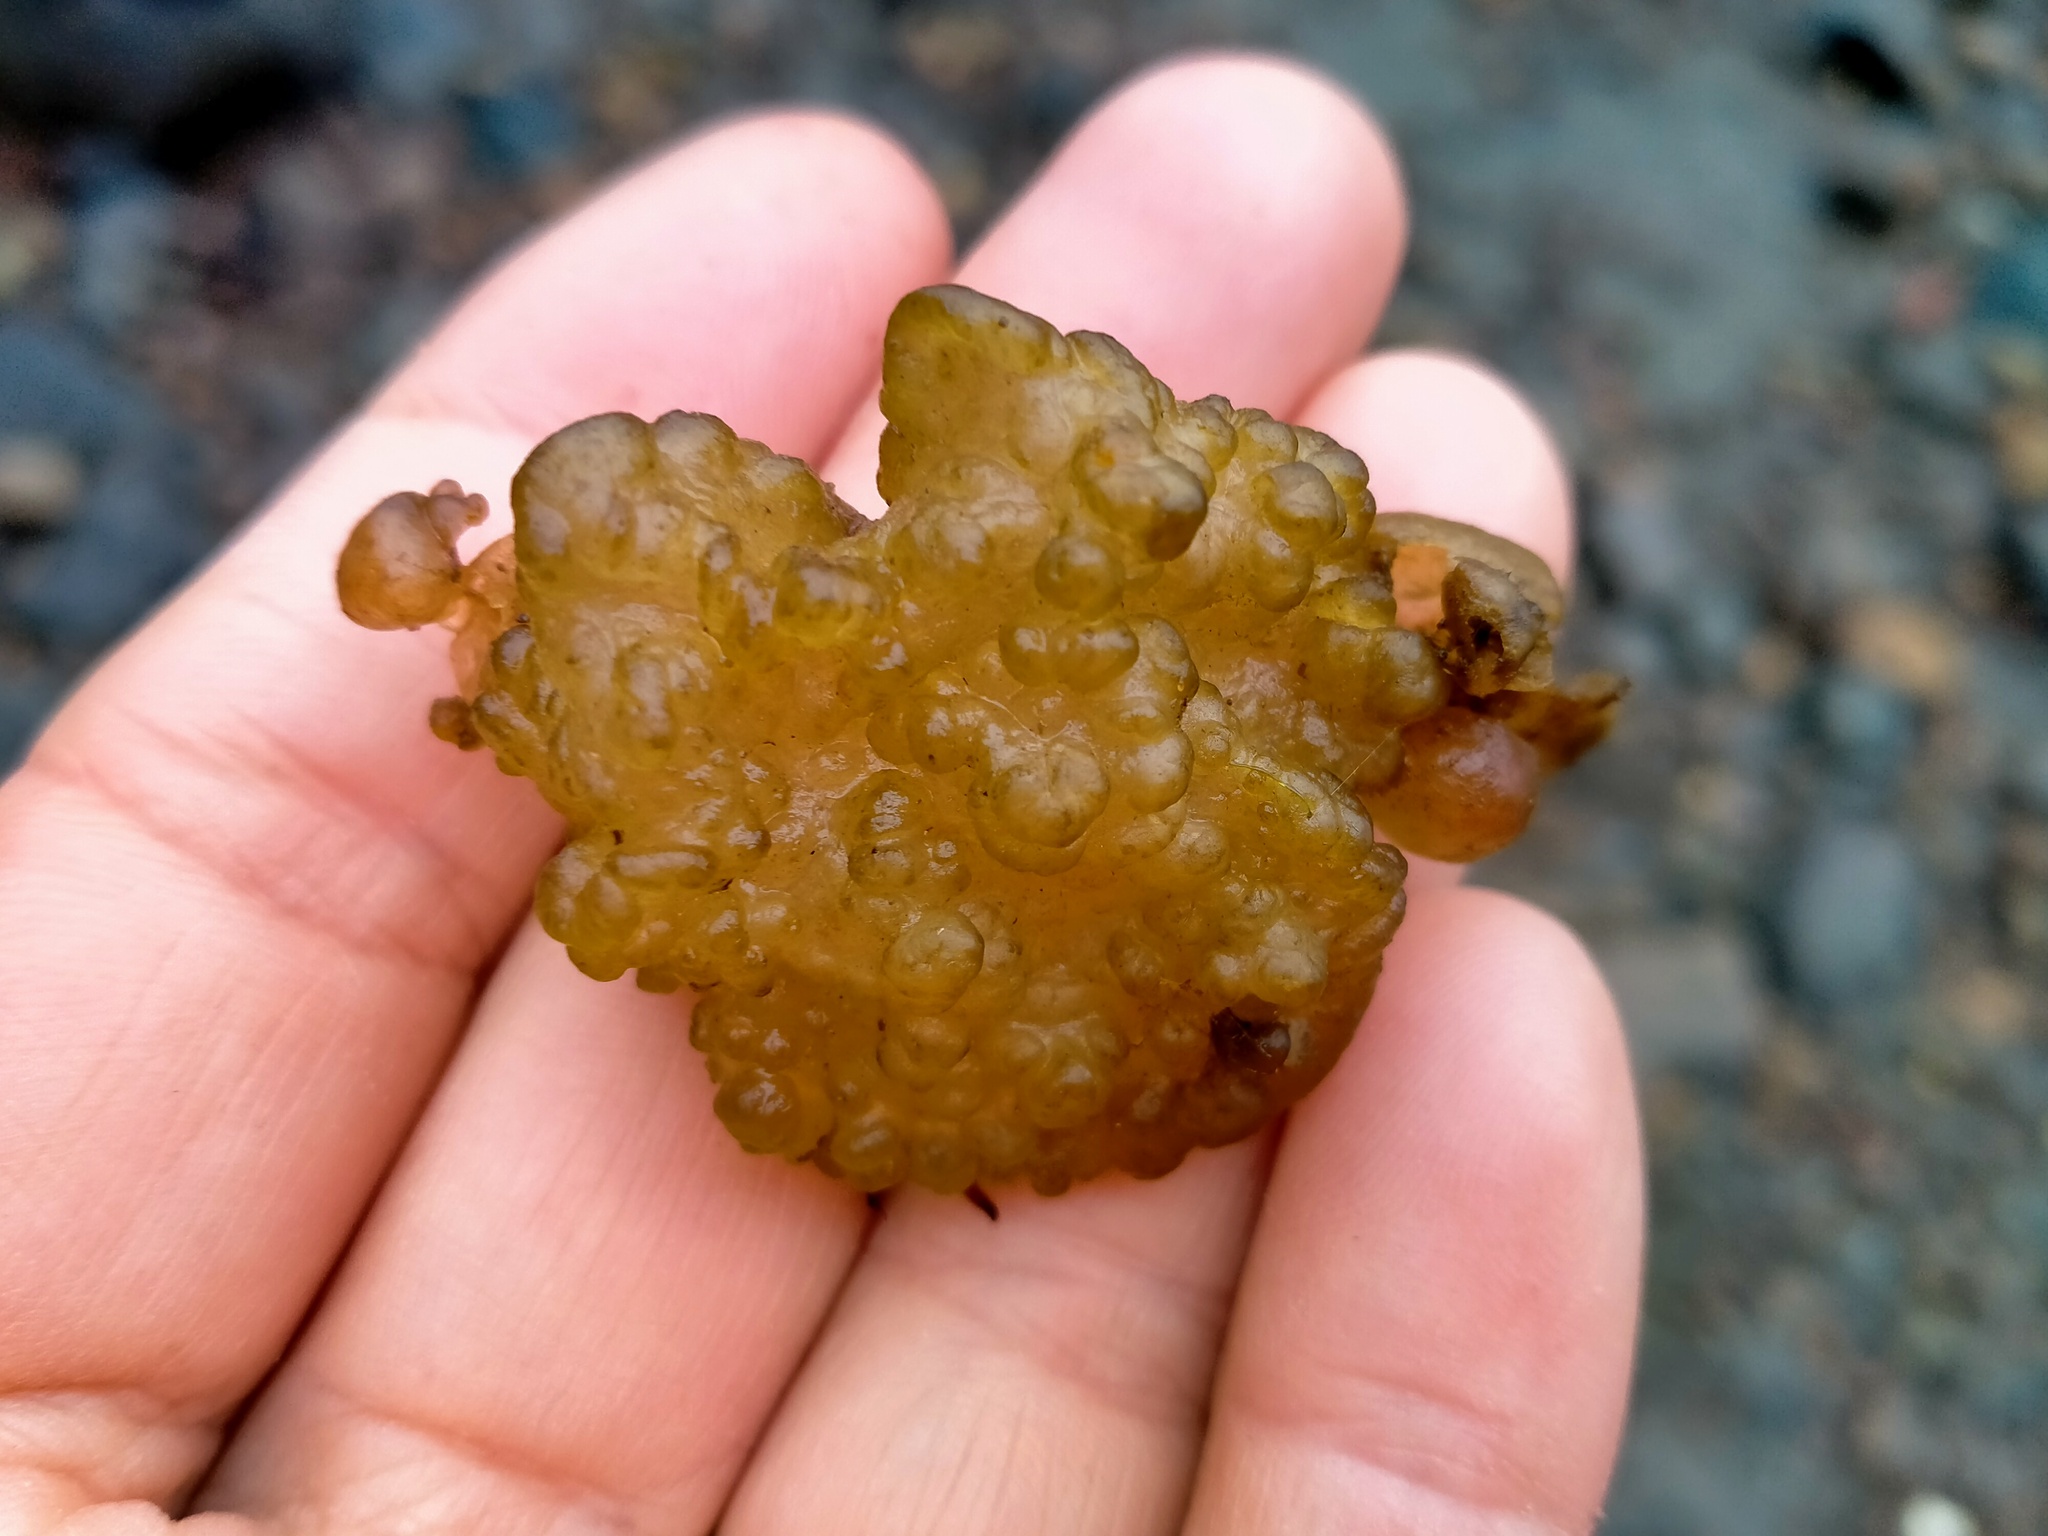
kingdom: Chromista
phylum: Ochrophyta
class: Phaeophyceae
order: Ectocarpales
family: Chordariaceae
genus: Leathesia
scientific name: Leathesia marina
